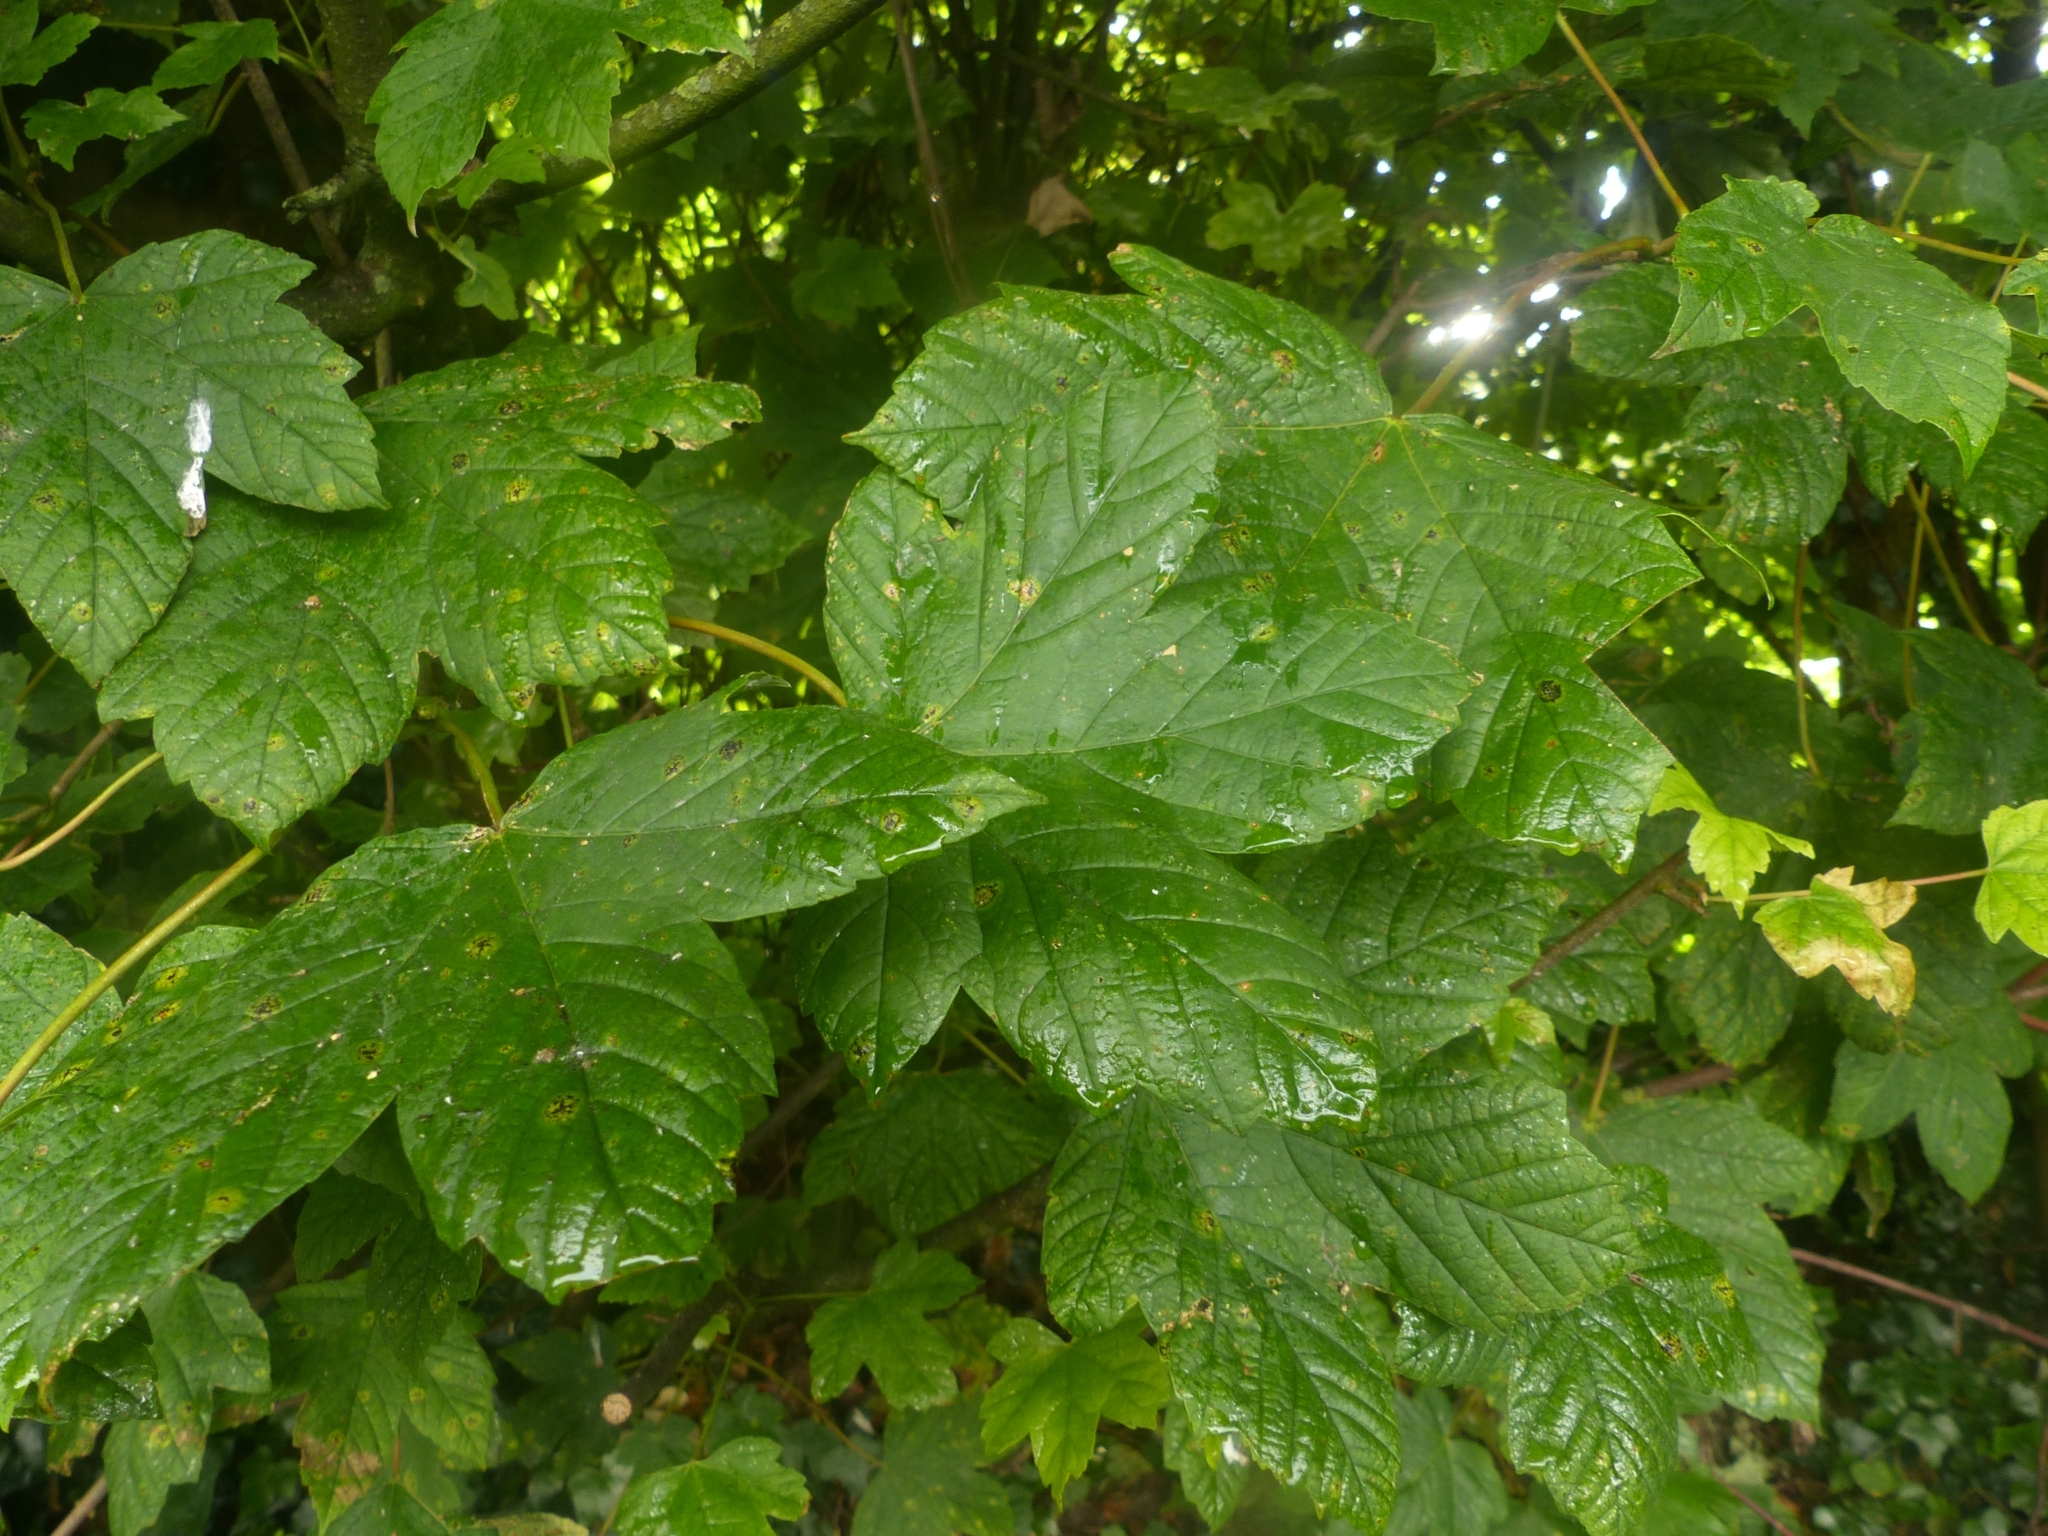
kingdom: Plantae
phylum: Tracheophyta
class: Magnoliopsida
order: Sapindales
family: Sapindaceae
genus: Acer
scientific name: Acer pseudoplatanus
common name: Sycamore
